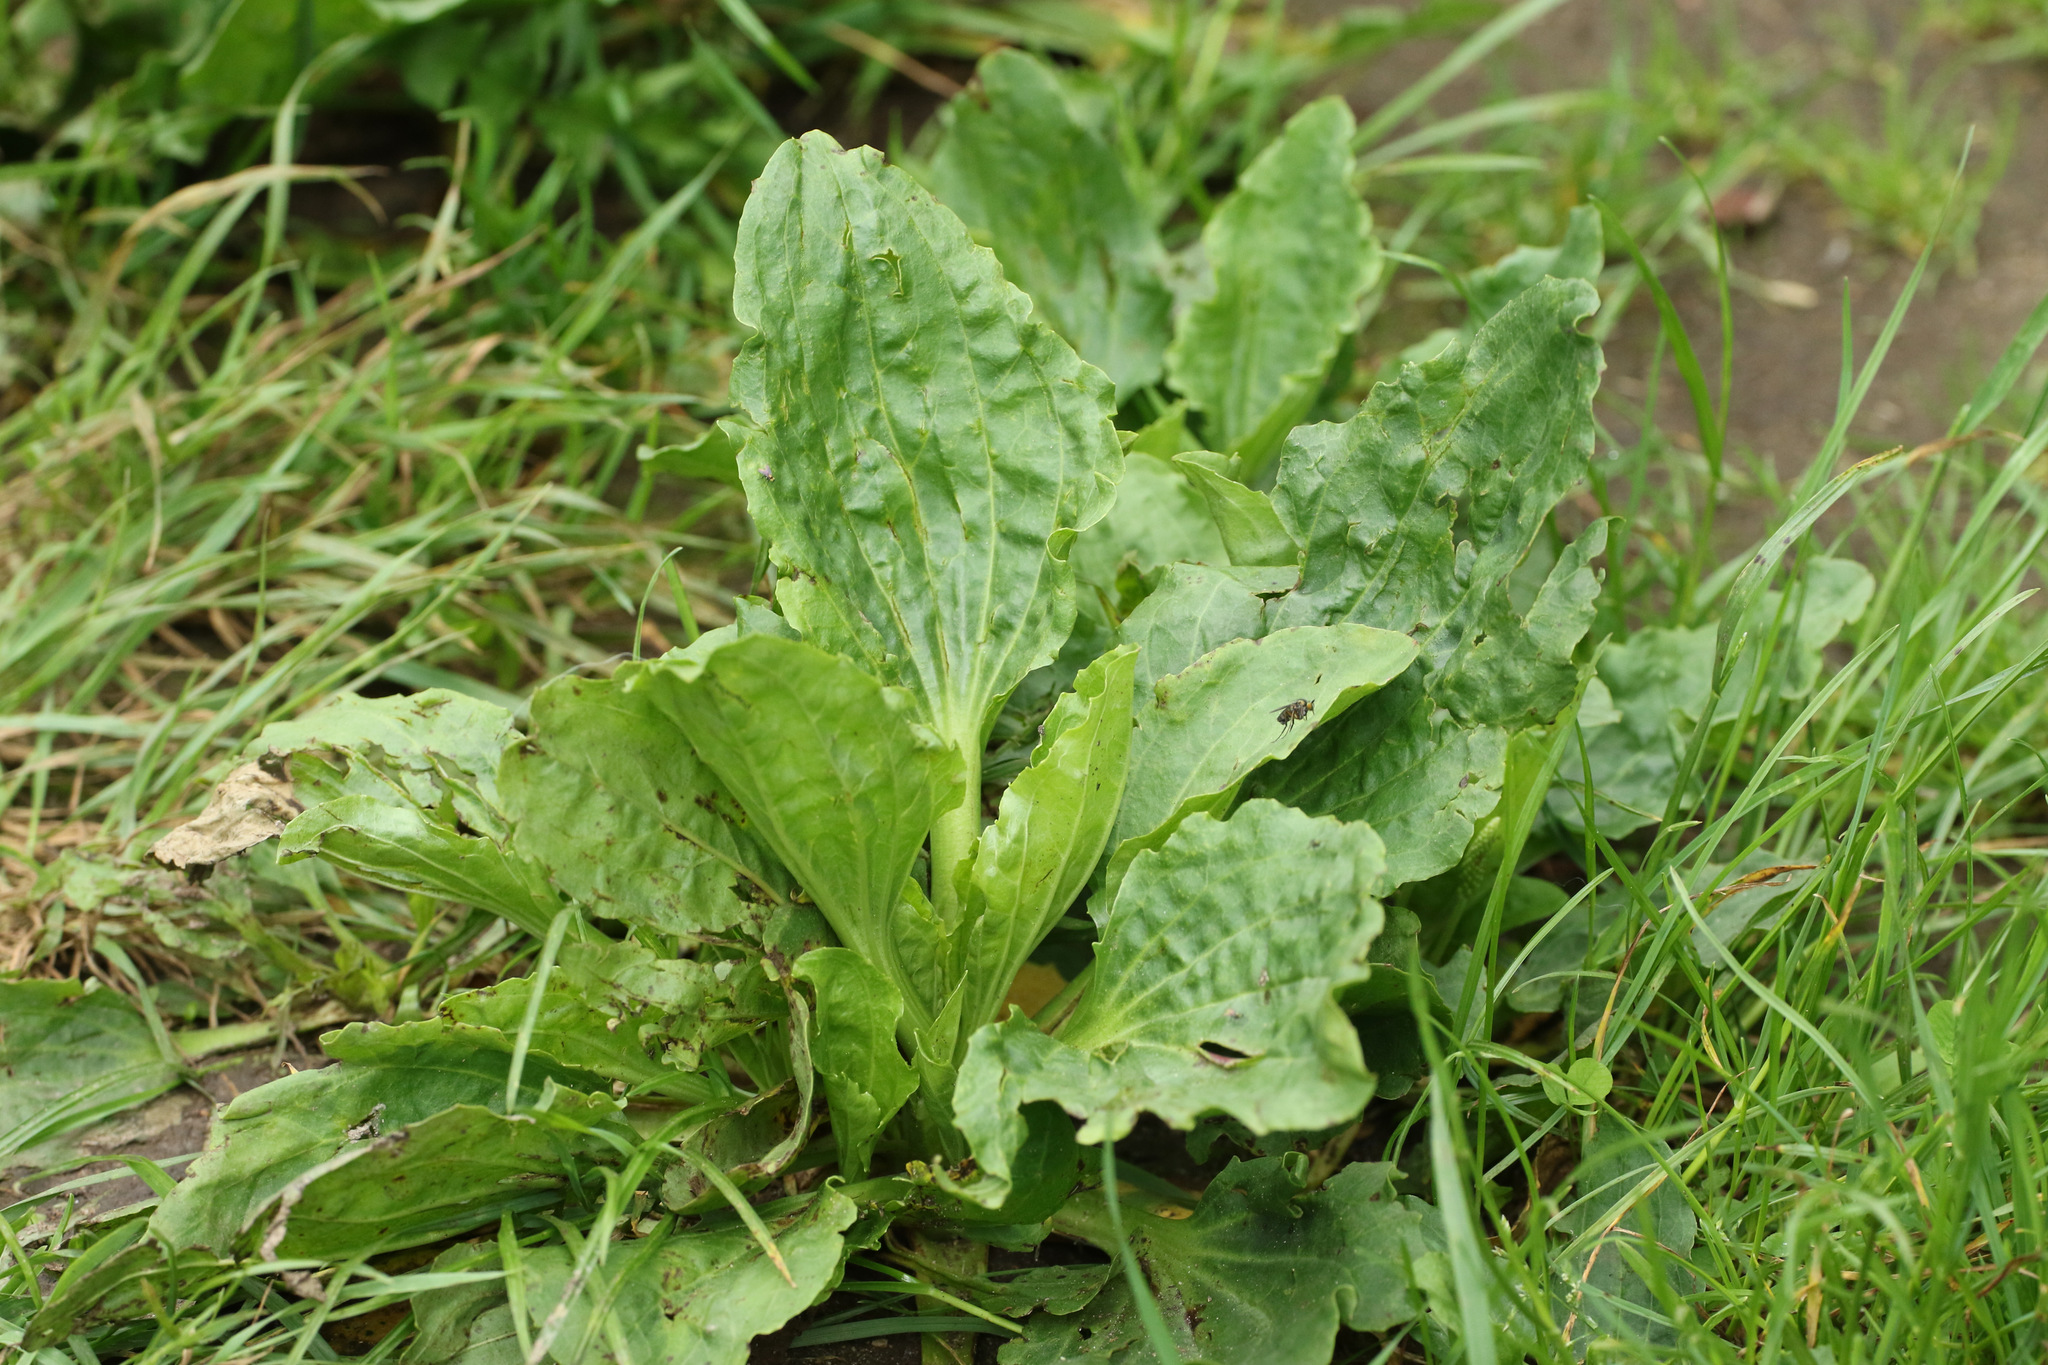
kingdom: Plantae
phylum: Tracheophyta
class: Magnoliopsida
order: Lamiales
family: Plantaginaceae
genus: Plantago
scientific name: Plantago major
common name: Common plantain
